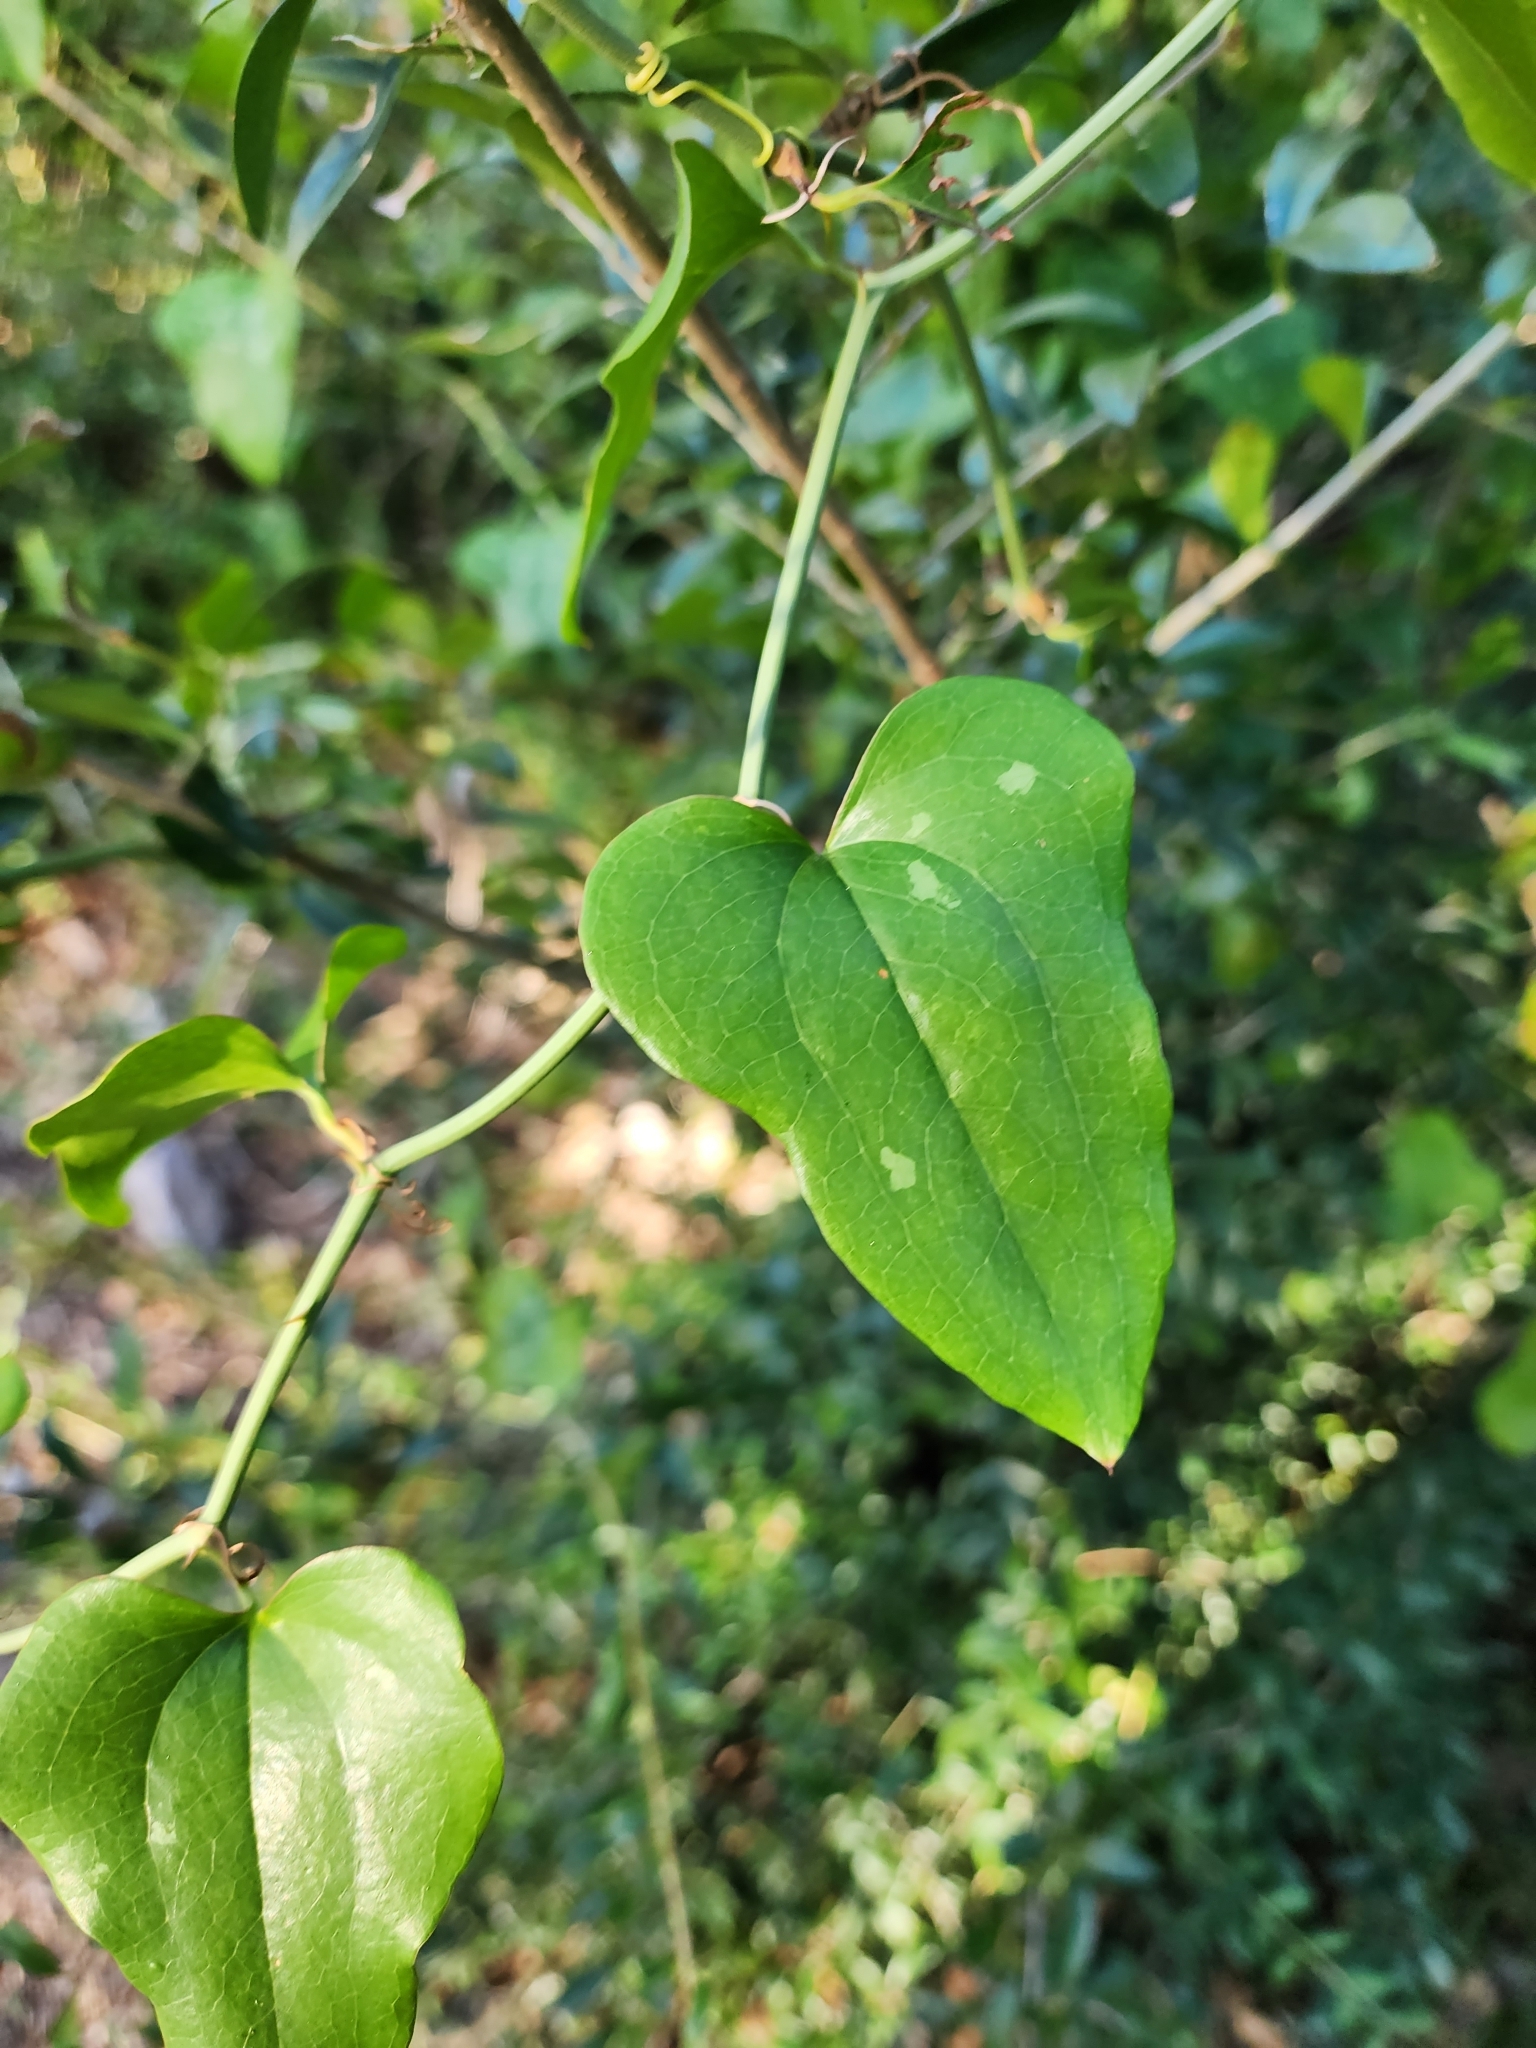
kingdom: Plantae
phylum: Tracheophyta
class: Liliopsida
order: Liliales
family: Smilacaceae
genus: Smilax
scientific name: Smilax bona-nox
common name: Catbrier
